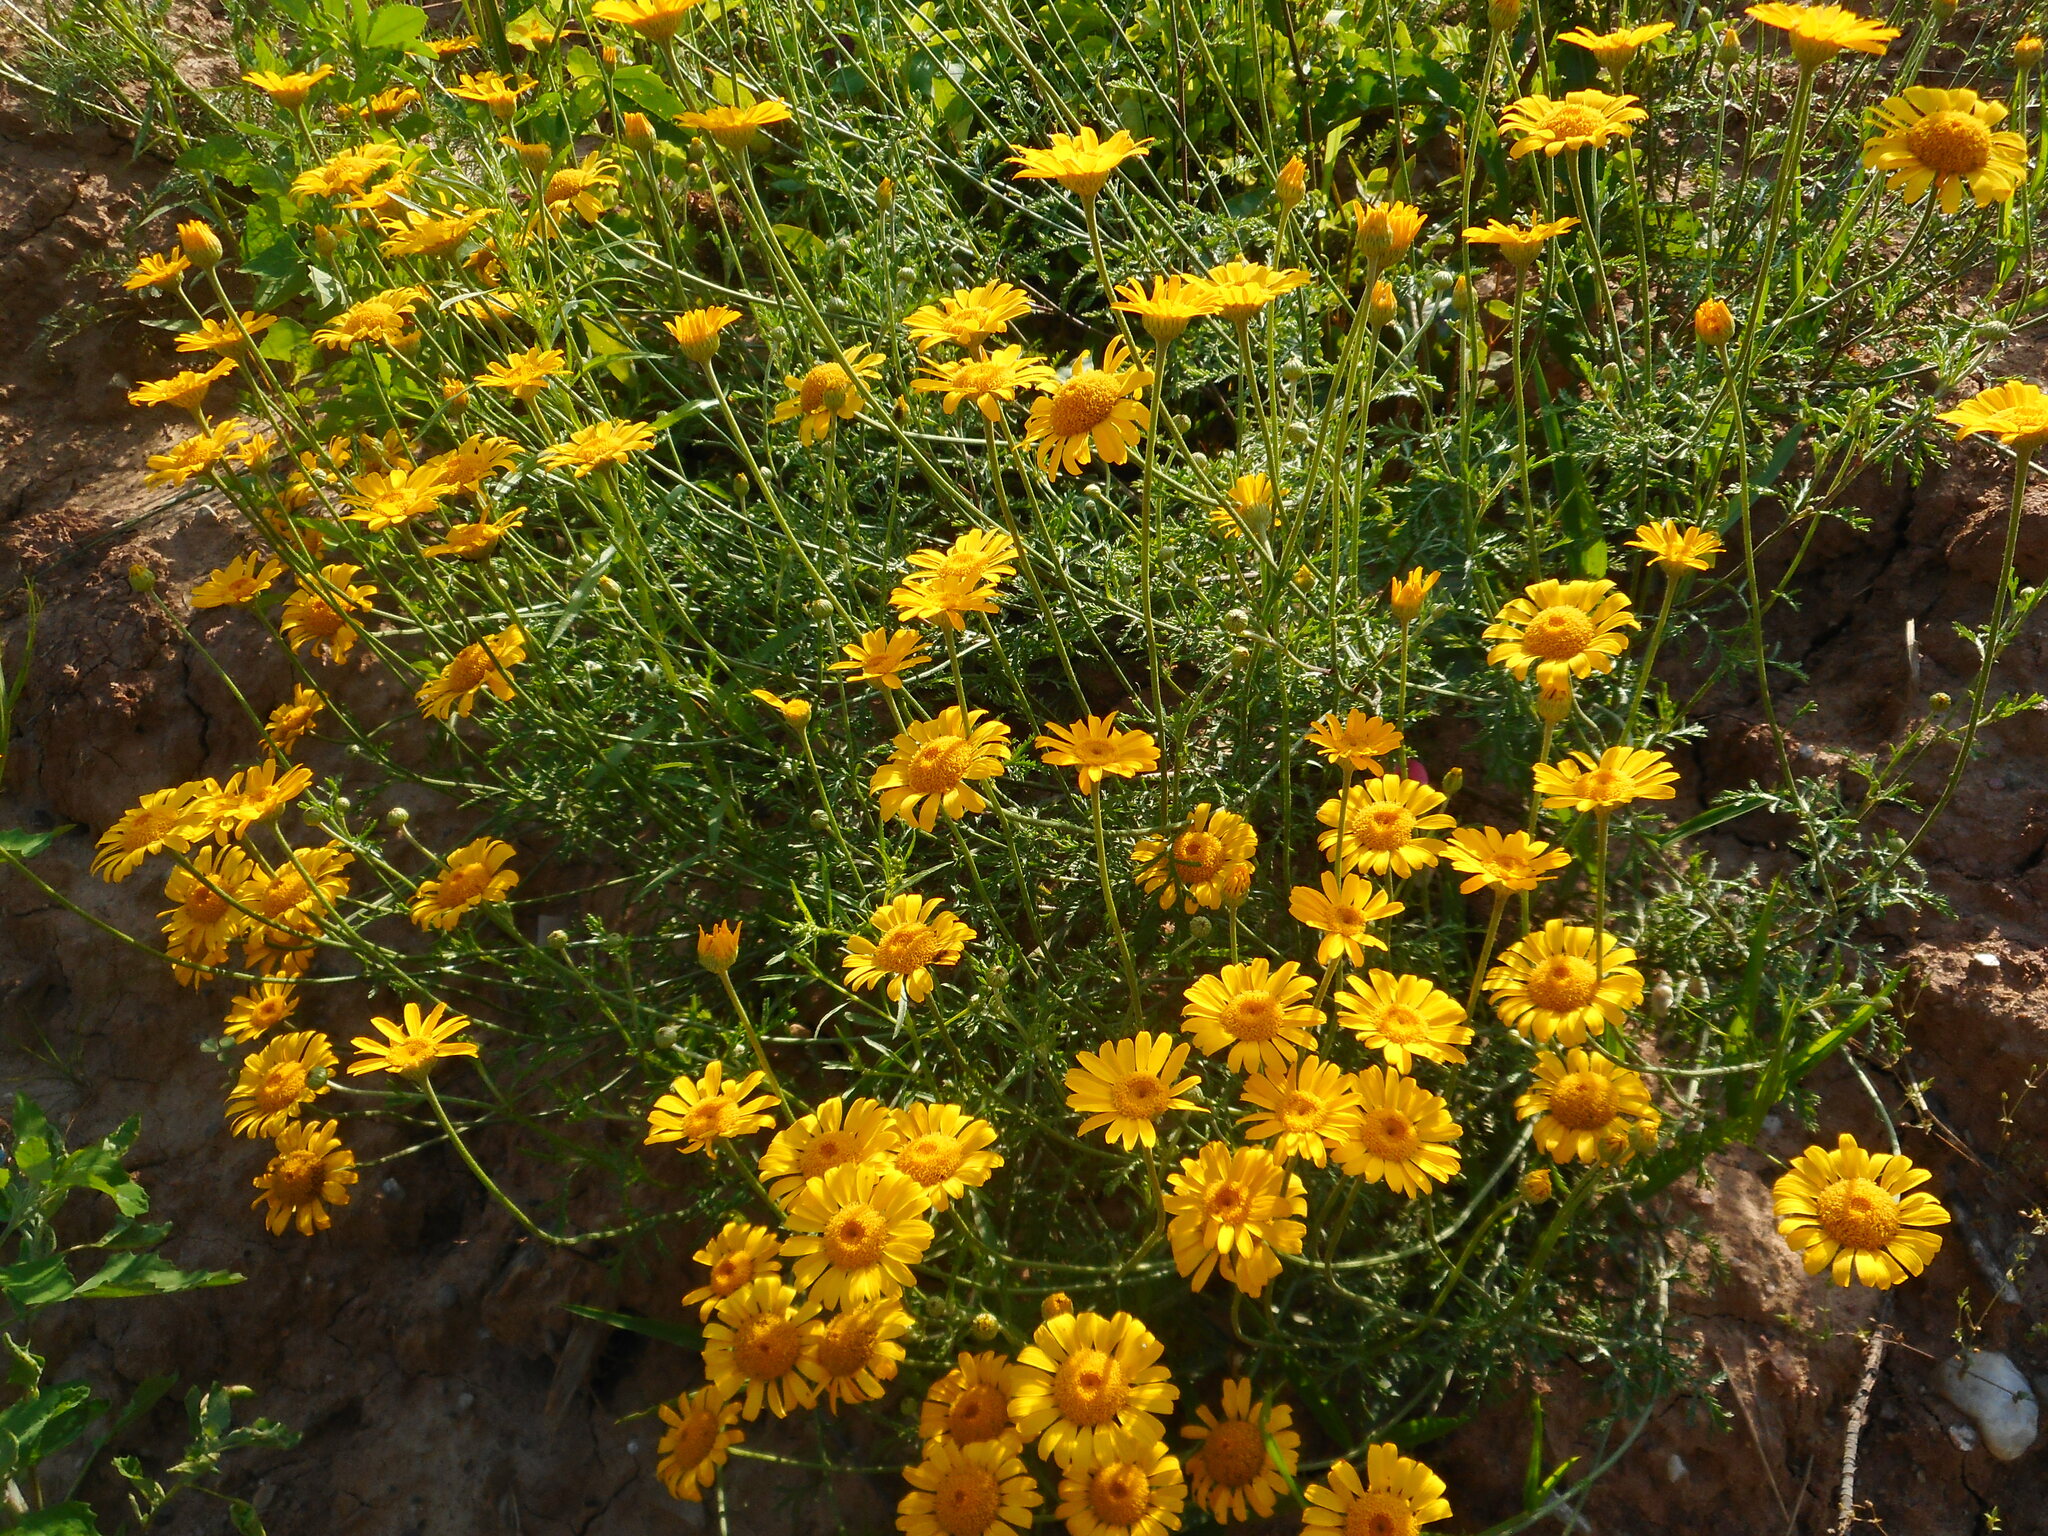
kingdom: Plantae
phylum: Tracheophyta
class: Magnoliopsida
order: Asterales
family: Asteraceae
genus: Cota
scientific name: Cota tinctoria
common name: Golden chamomile
